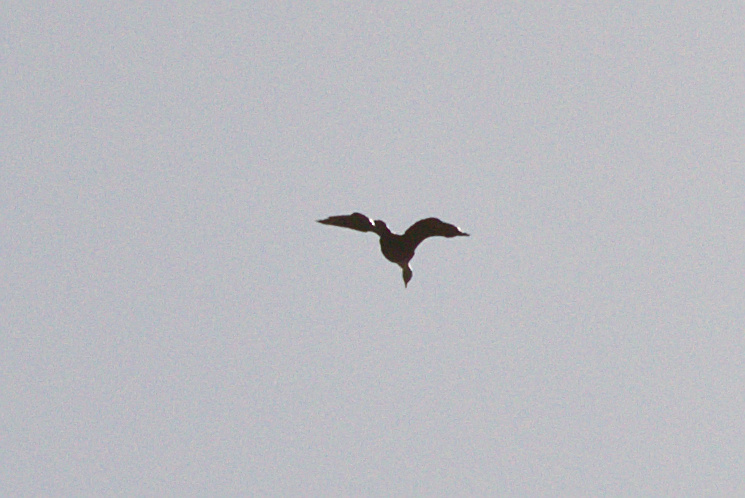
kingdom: Animalia
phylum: Chordata
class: Aves
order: Suliformes
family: Phalacrocoracidae
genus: Phalacrocorax
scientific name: Phalacrocorax carbo
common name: Great cormorant
